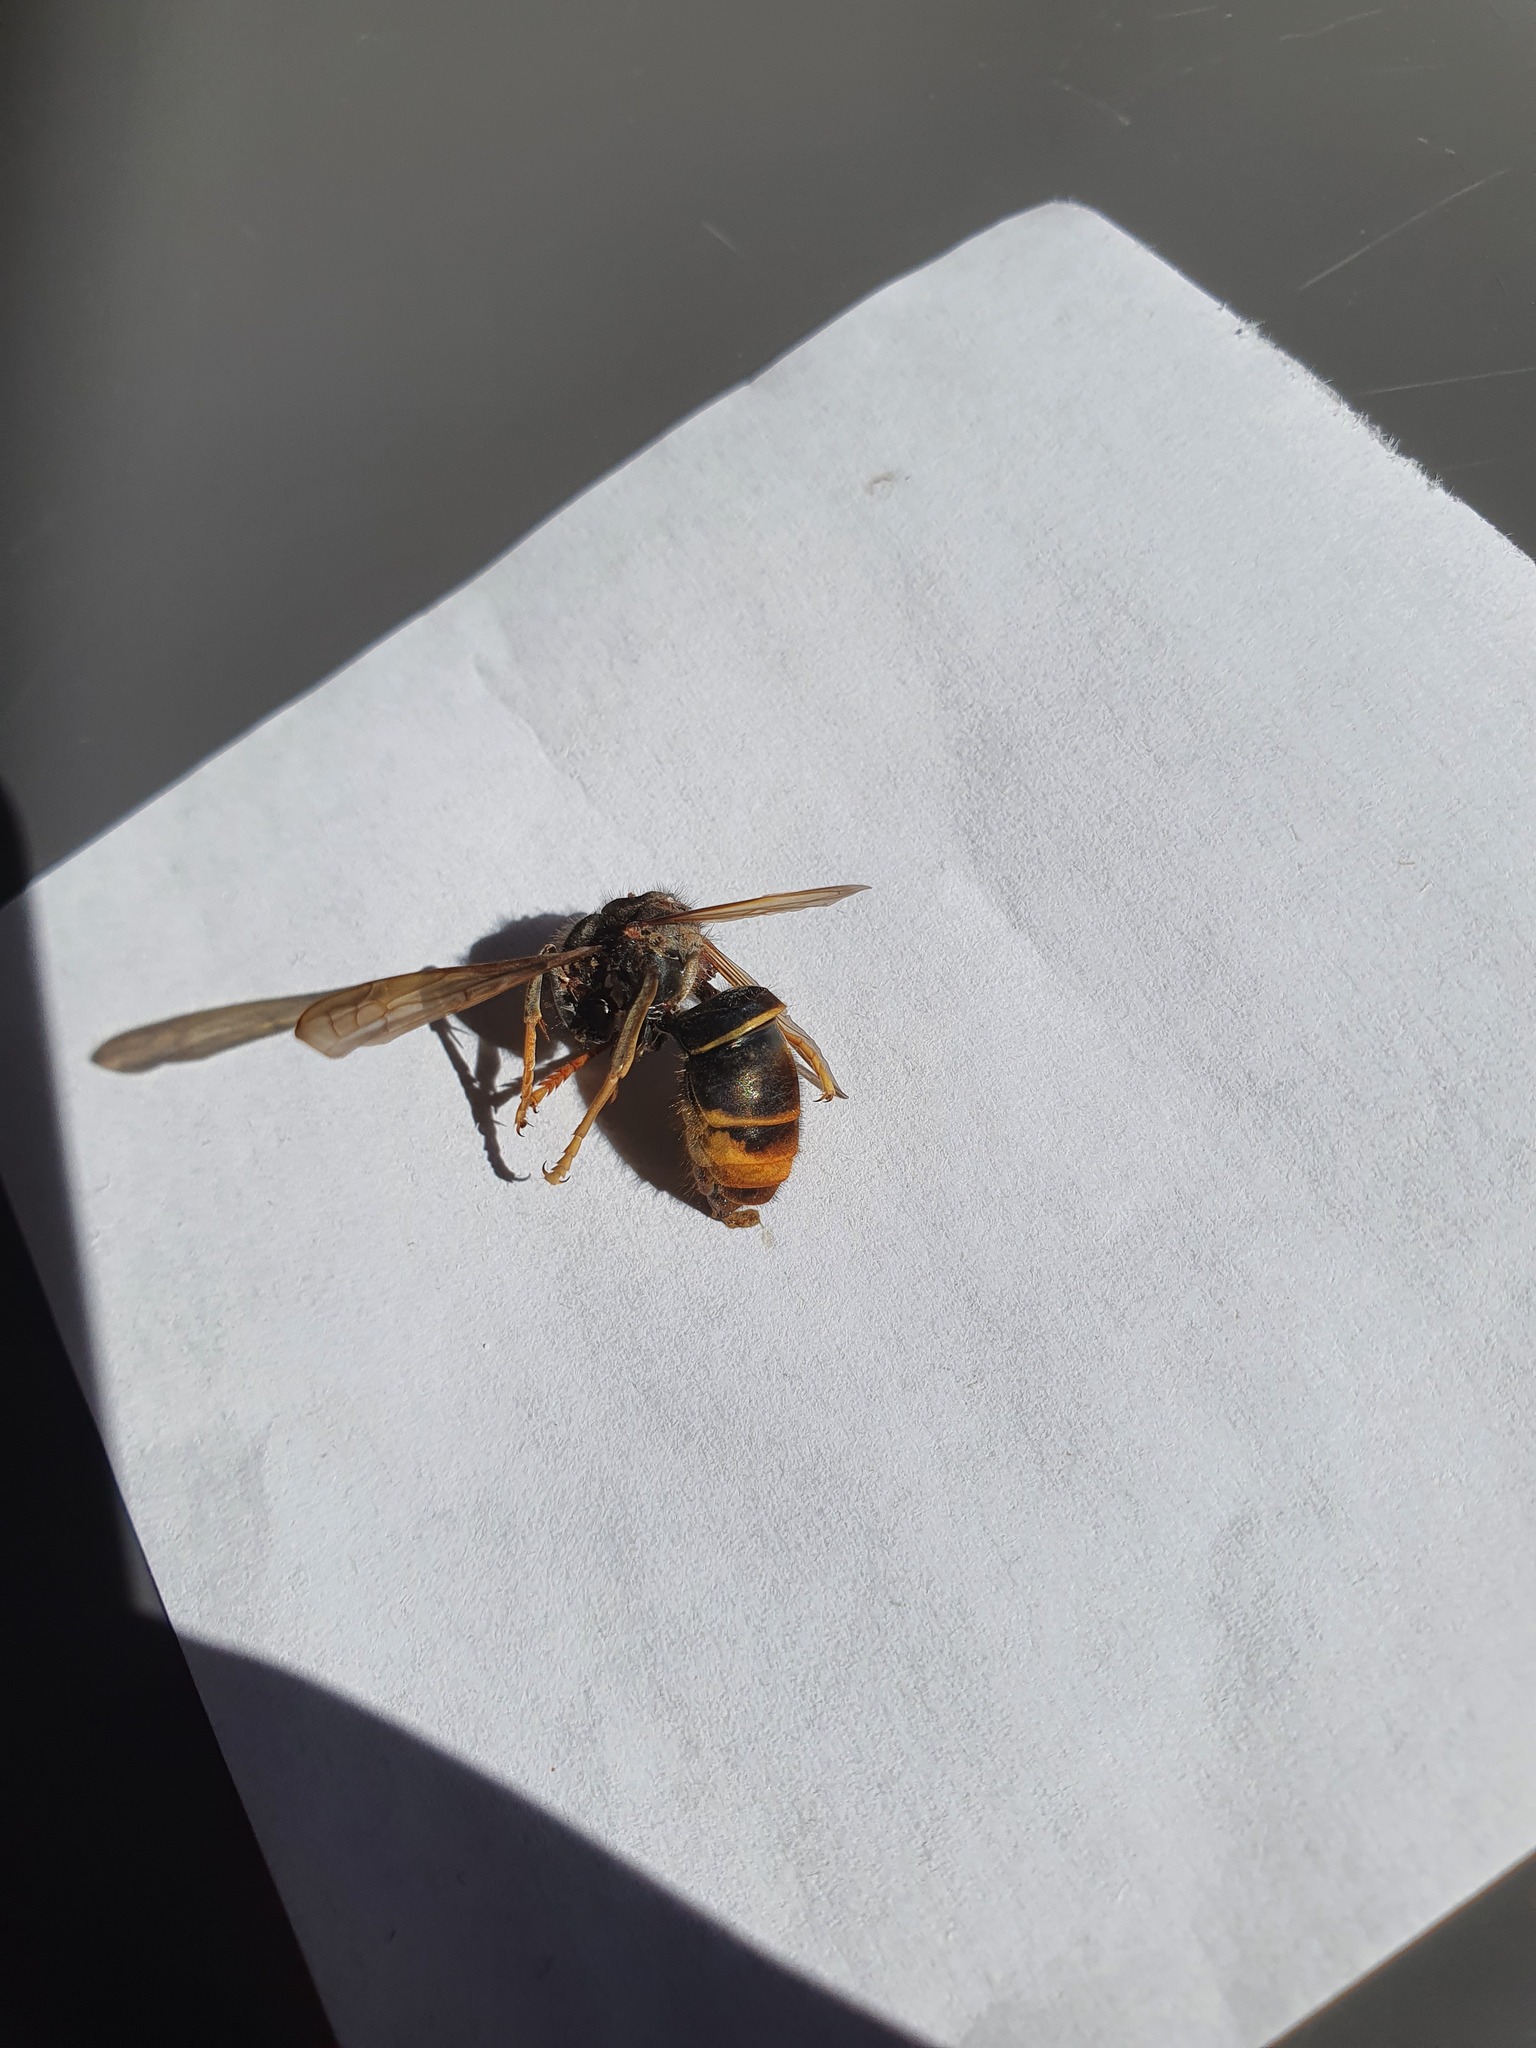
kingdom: Animalia
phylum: Arthropoda
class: Insecta
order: Hymenoptera
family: Vespidae
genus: Vespa
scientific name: Vespa velutina
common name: Asian hornet
